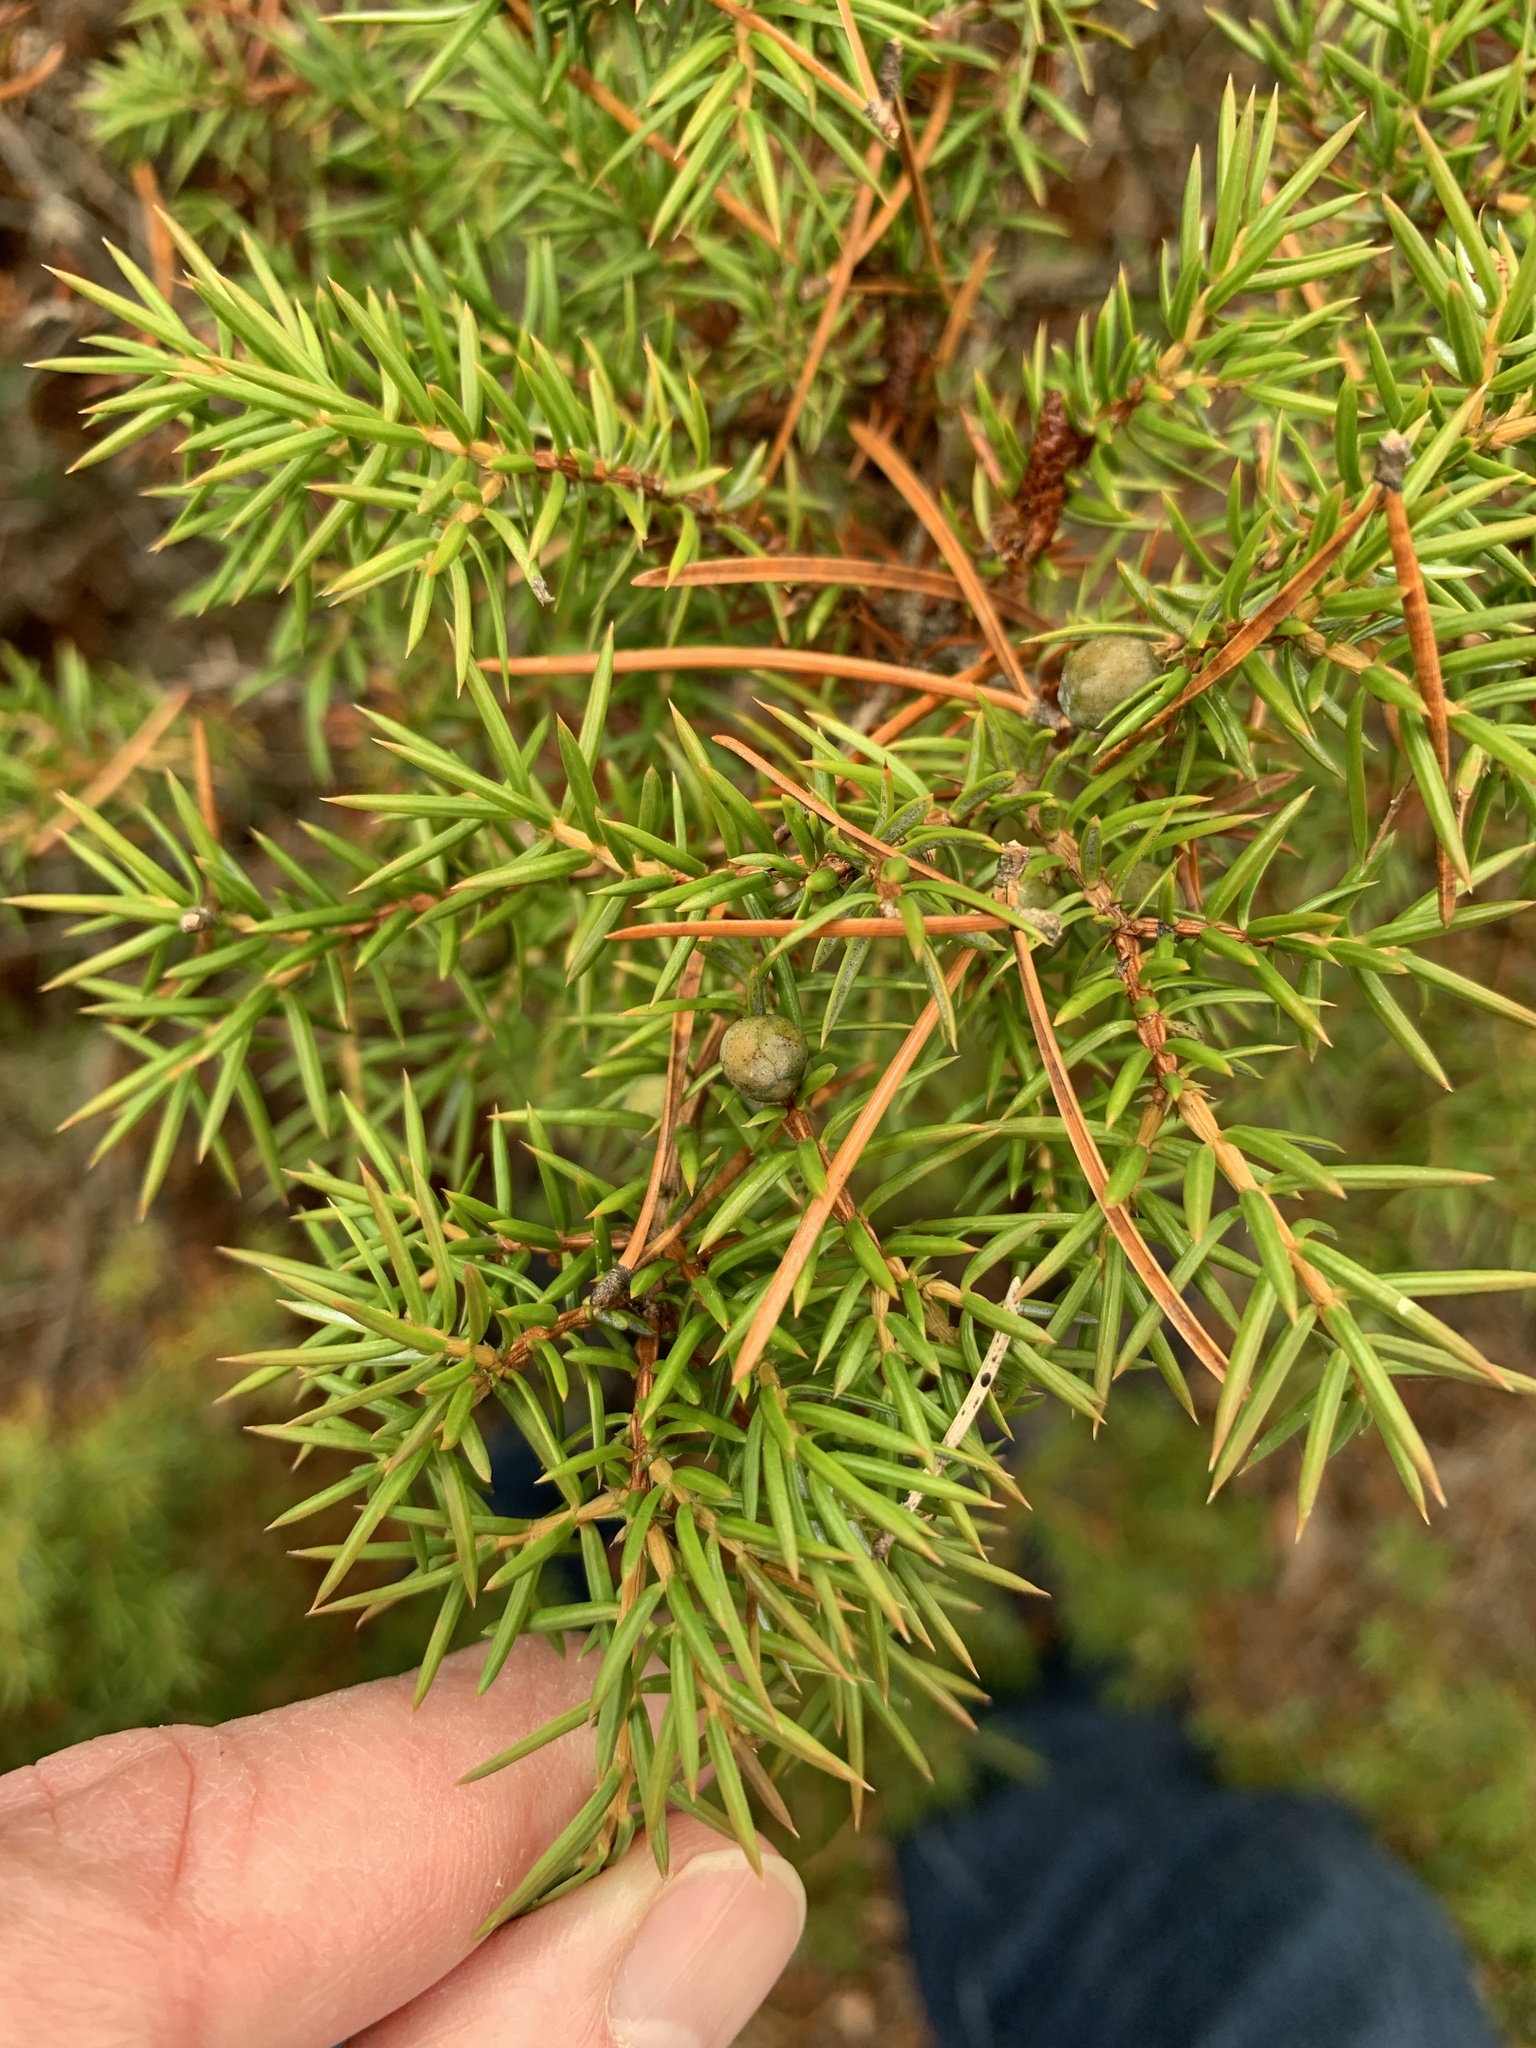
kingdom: Plantae
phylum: Tracheophyta
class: Pinopsida
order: Pinales
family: Cupressaceae
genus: Juniperus
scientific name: Juniperus communis
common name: Common juniper
